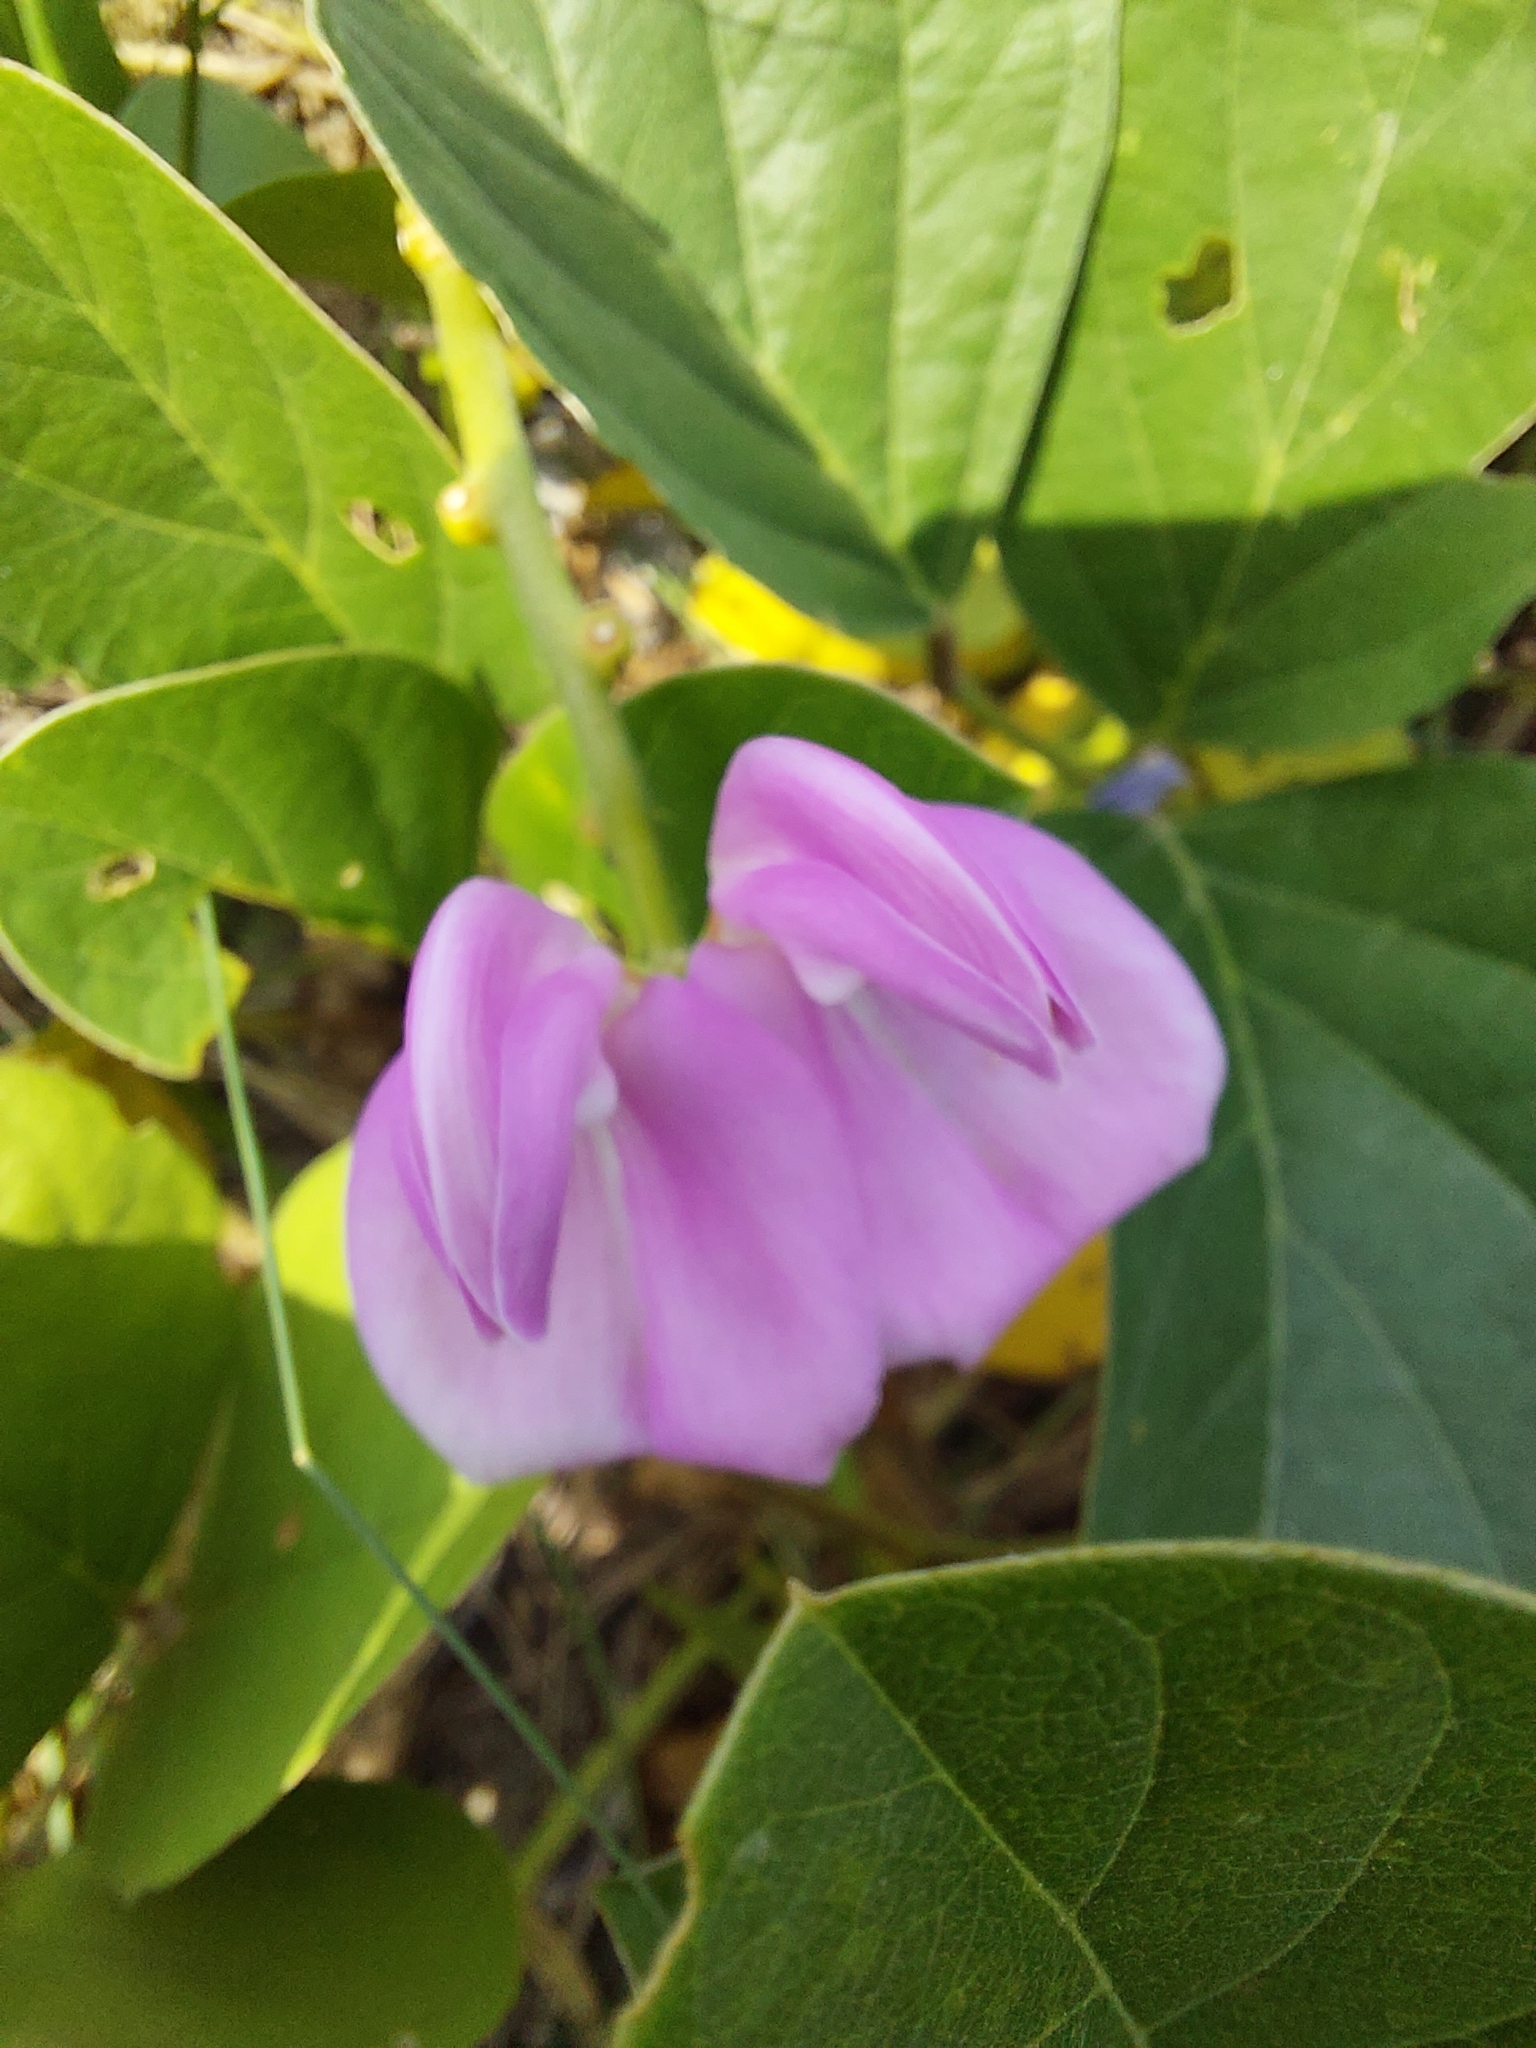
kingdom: Plantae
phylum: Tracheophyta
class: Magnoliopsida
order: Fabales
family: Fabaceae
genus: Canavalia
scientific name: Canavalia rosea
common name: Beach-bean
